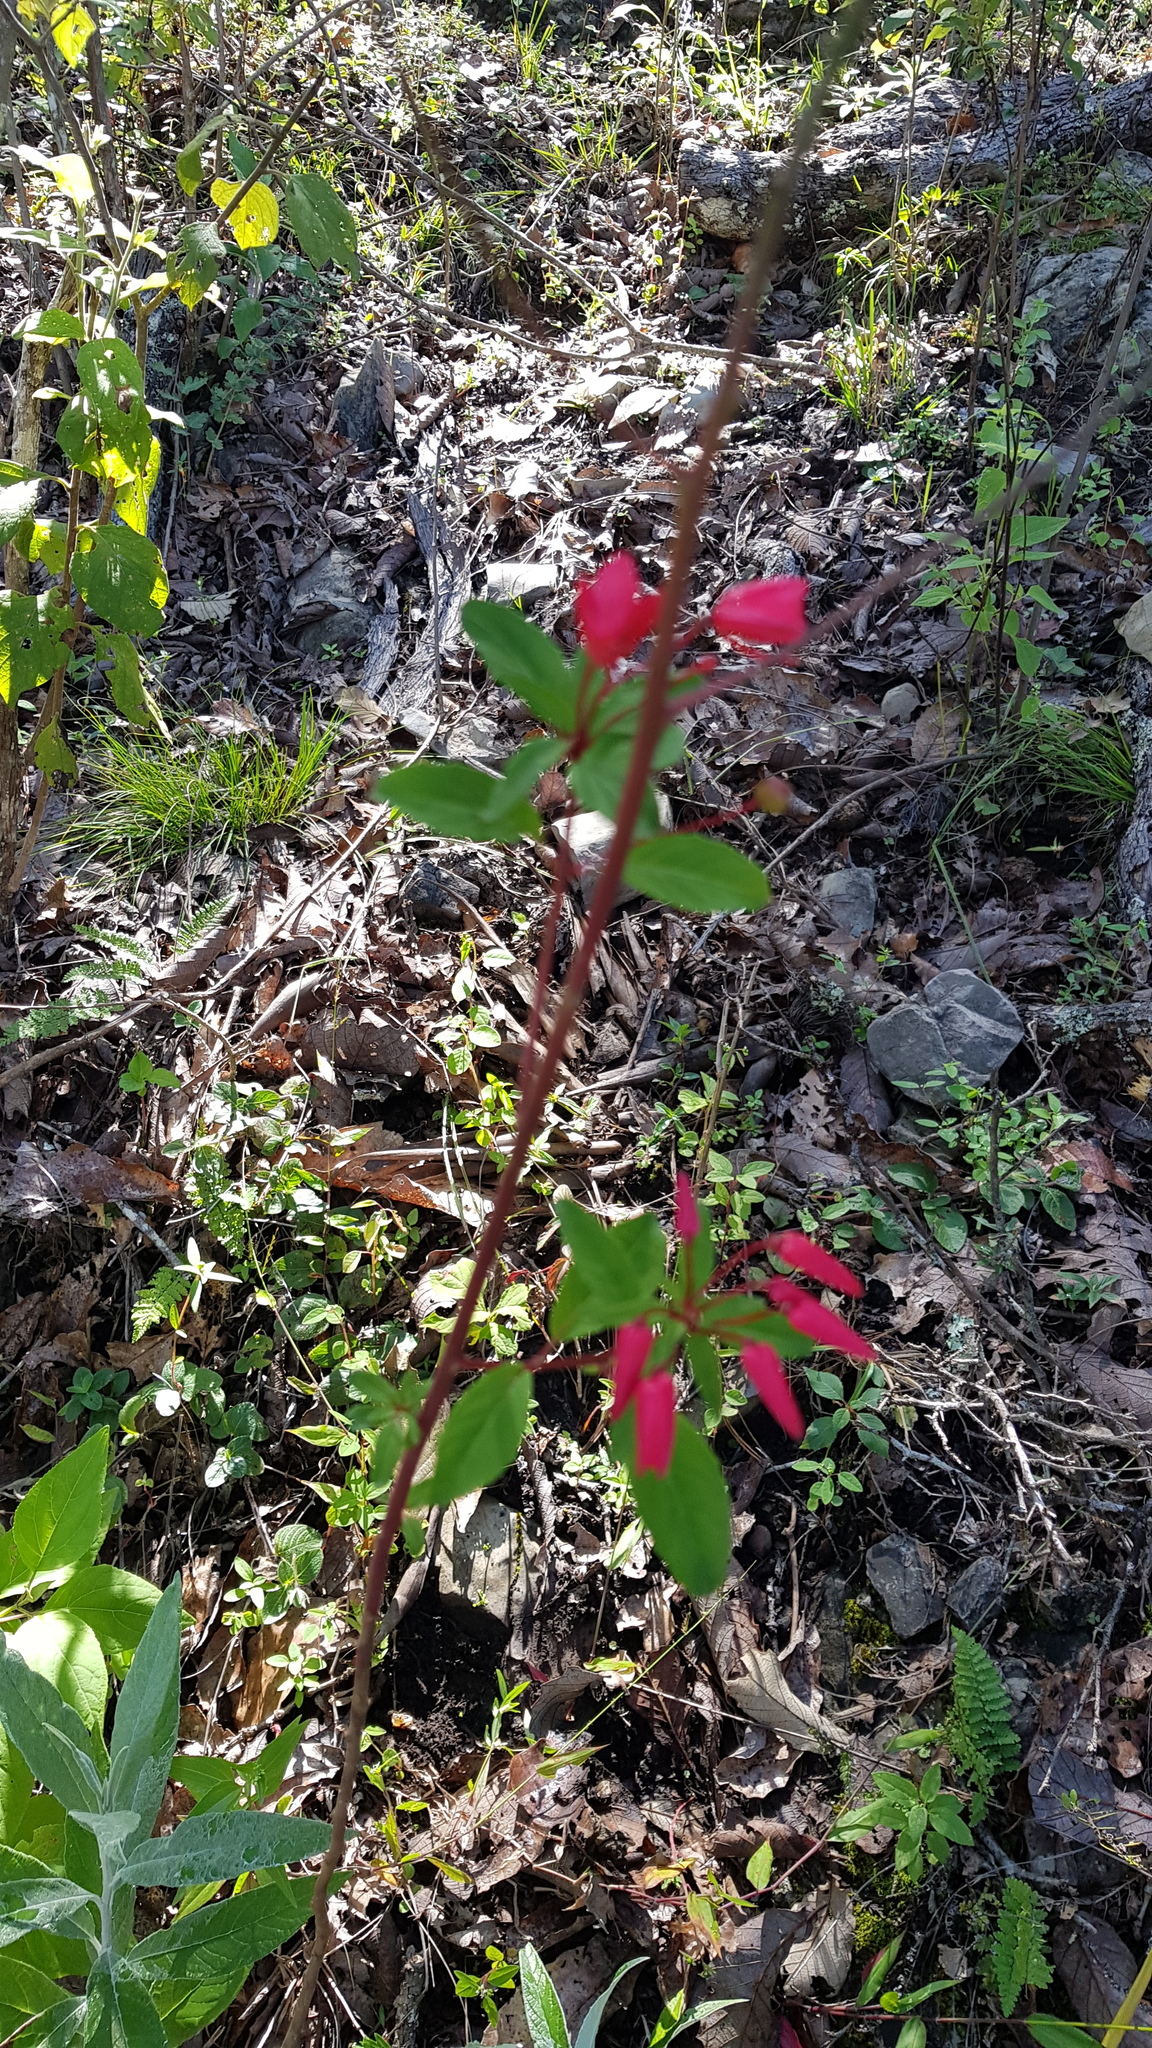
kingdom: Plantae
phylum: Tracheophyta
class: Magnoliopsida
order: Myrtales
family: Onagraceae
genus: Lopezia
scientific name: Lopezia grandiflora
